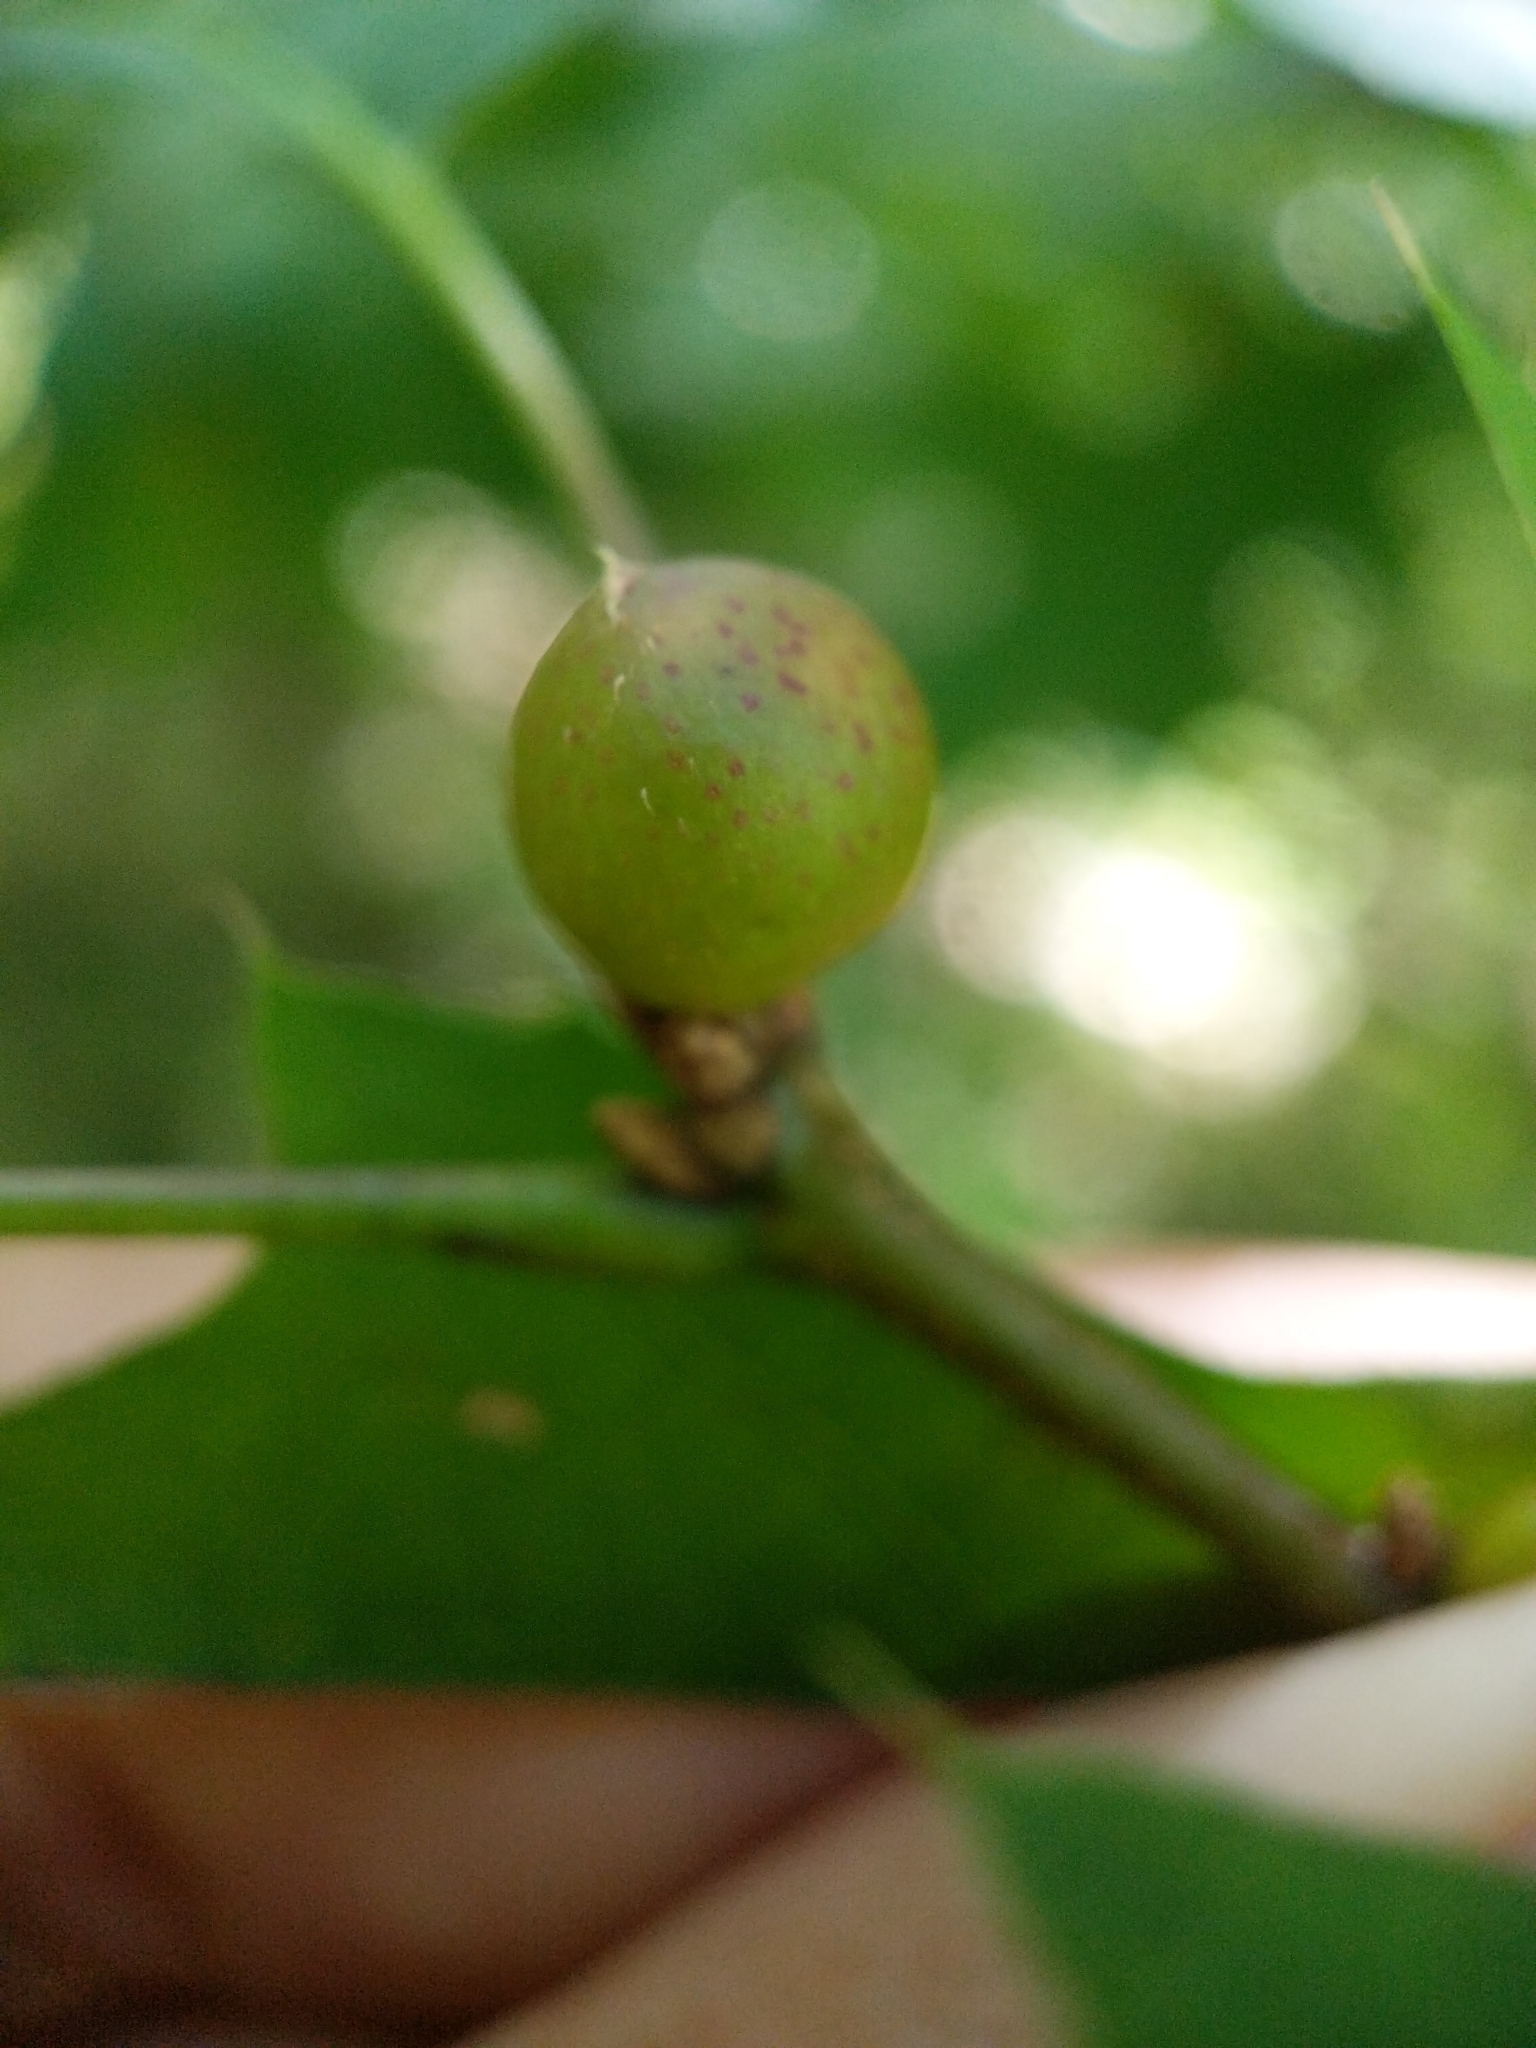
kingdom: Animalia
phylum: Arthropoda
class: Insecta
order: Hymenoptera
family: Cynipidae
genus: Amphibolips
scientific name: Amphibolips
